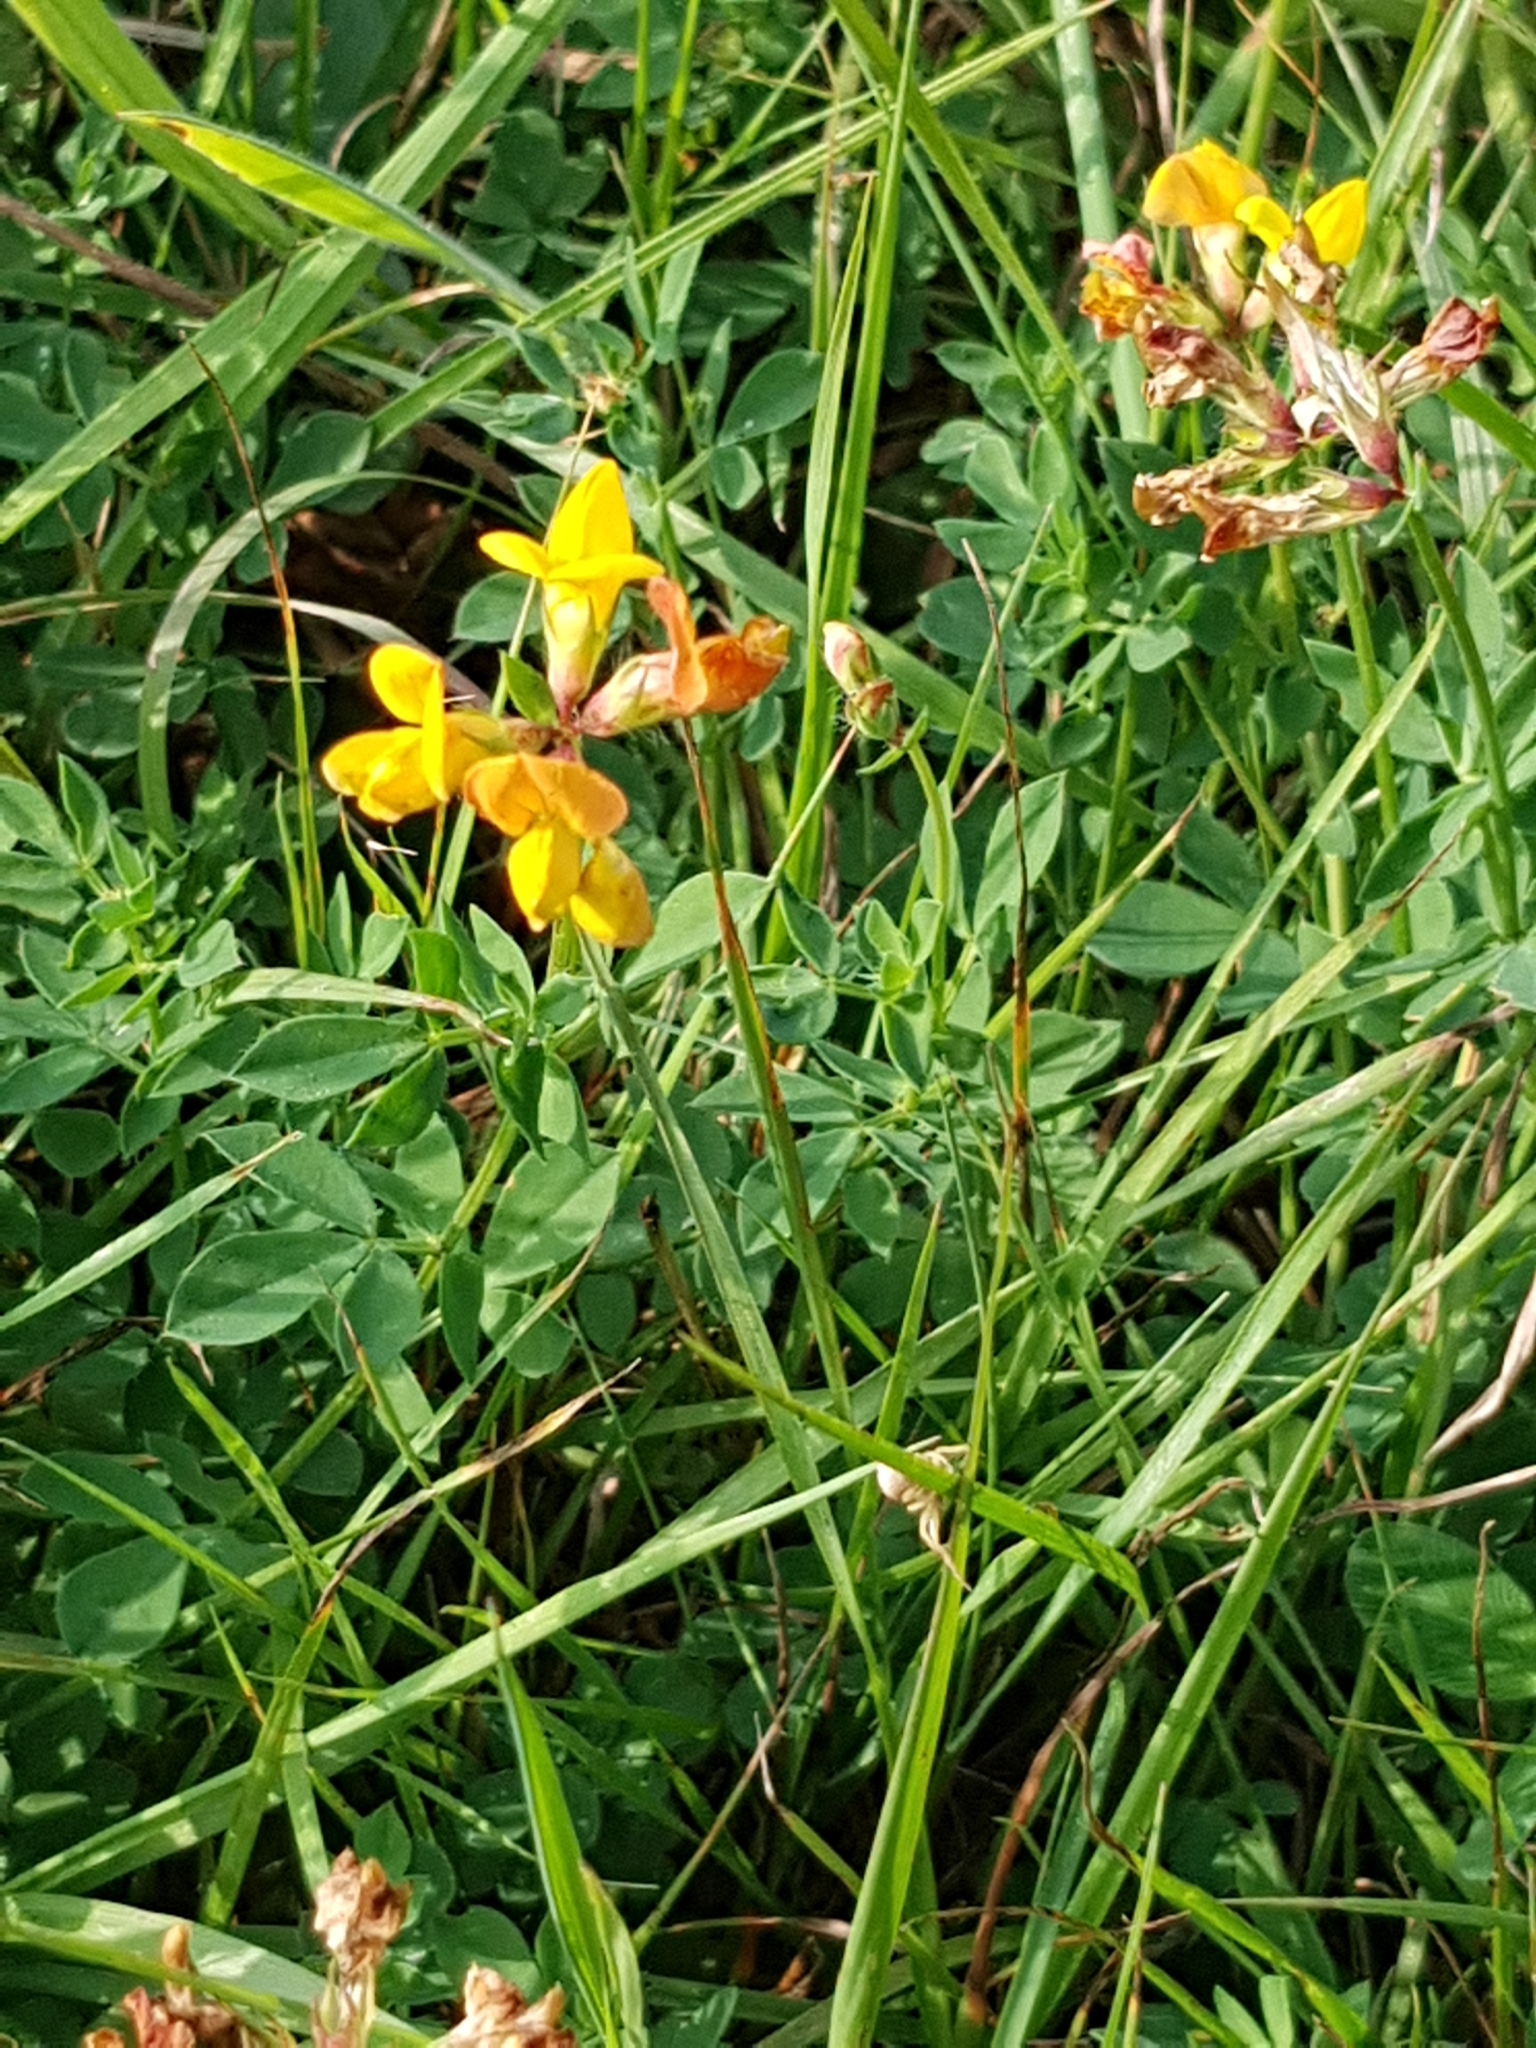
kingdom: Plantae
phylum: Tracheophyta
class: Magnoliopsida
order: Fabales
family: Fabaceae
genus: Lotus
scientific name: Lotus corniculatus
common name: Common bird's-foot-trefoil
